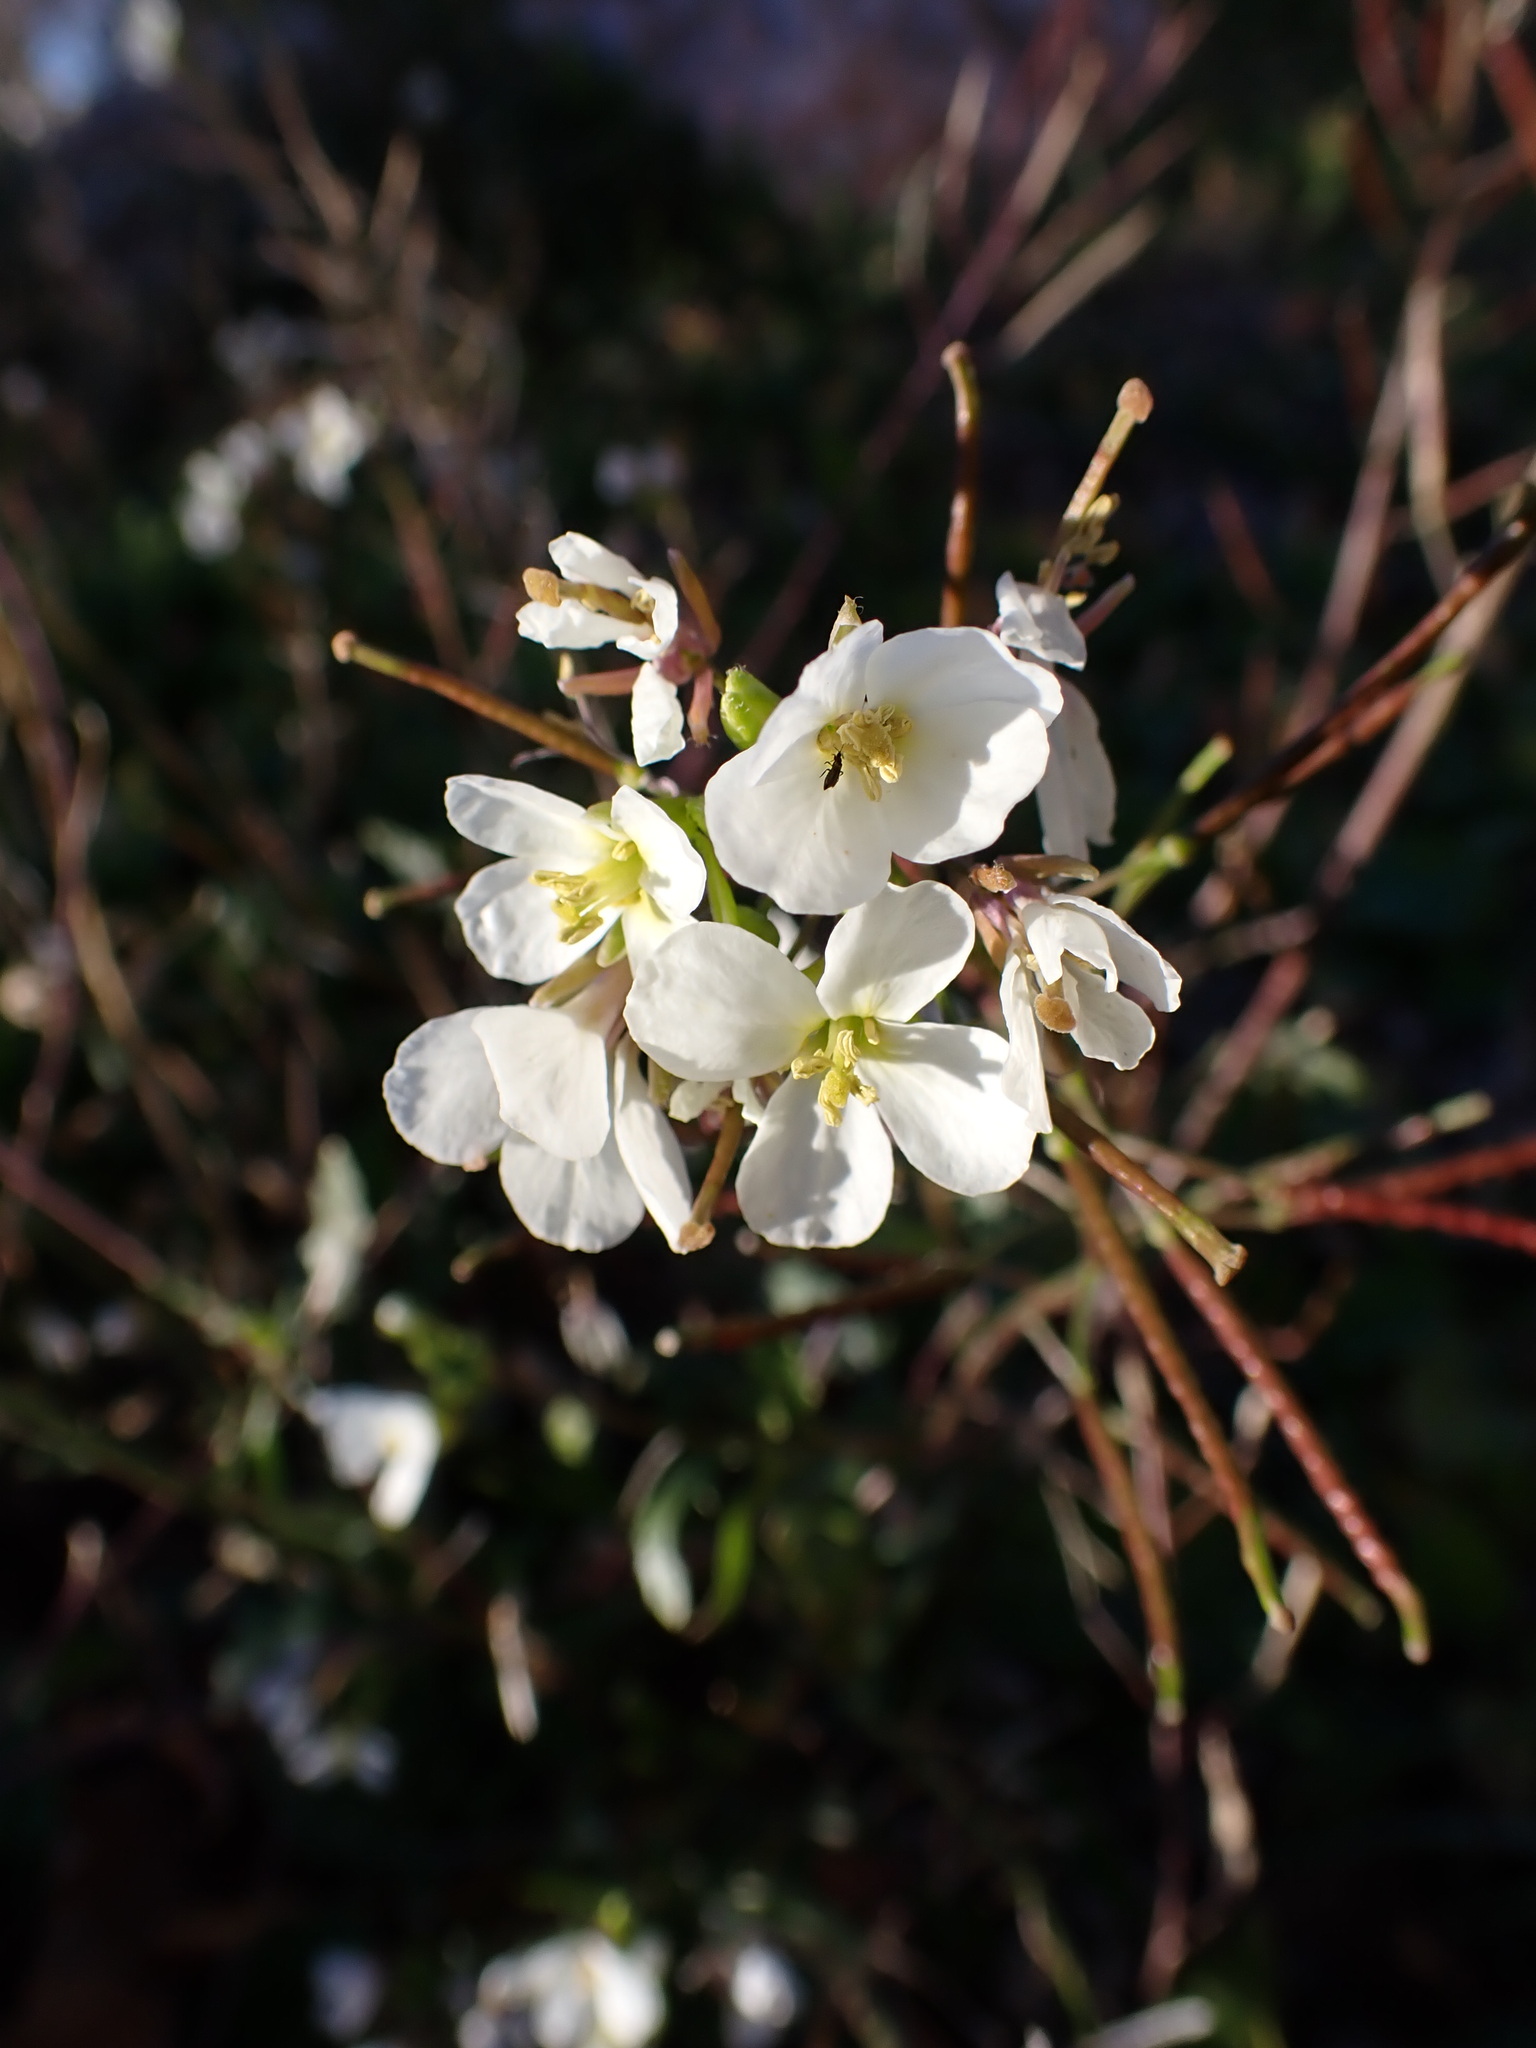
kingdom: Plantae
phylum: Tracheophyta
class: Magnoliopsida
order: Brassicales
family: Brassicaceae
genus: Diplotaxis
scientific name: Diplotaxis erucoides
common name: White rocket
